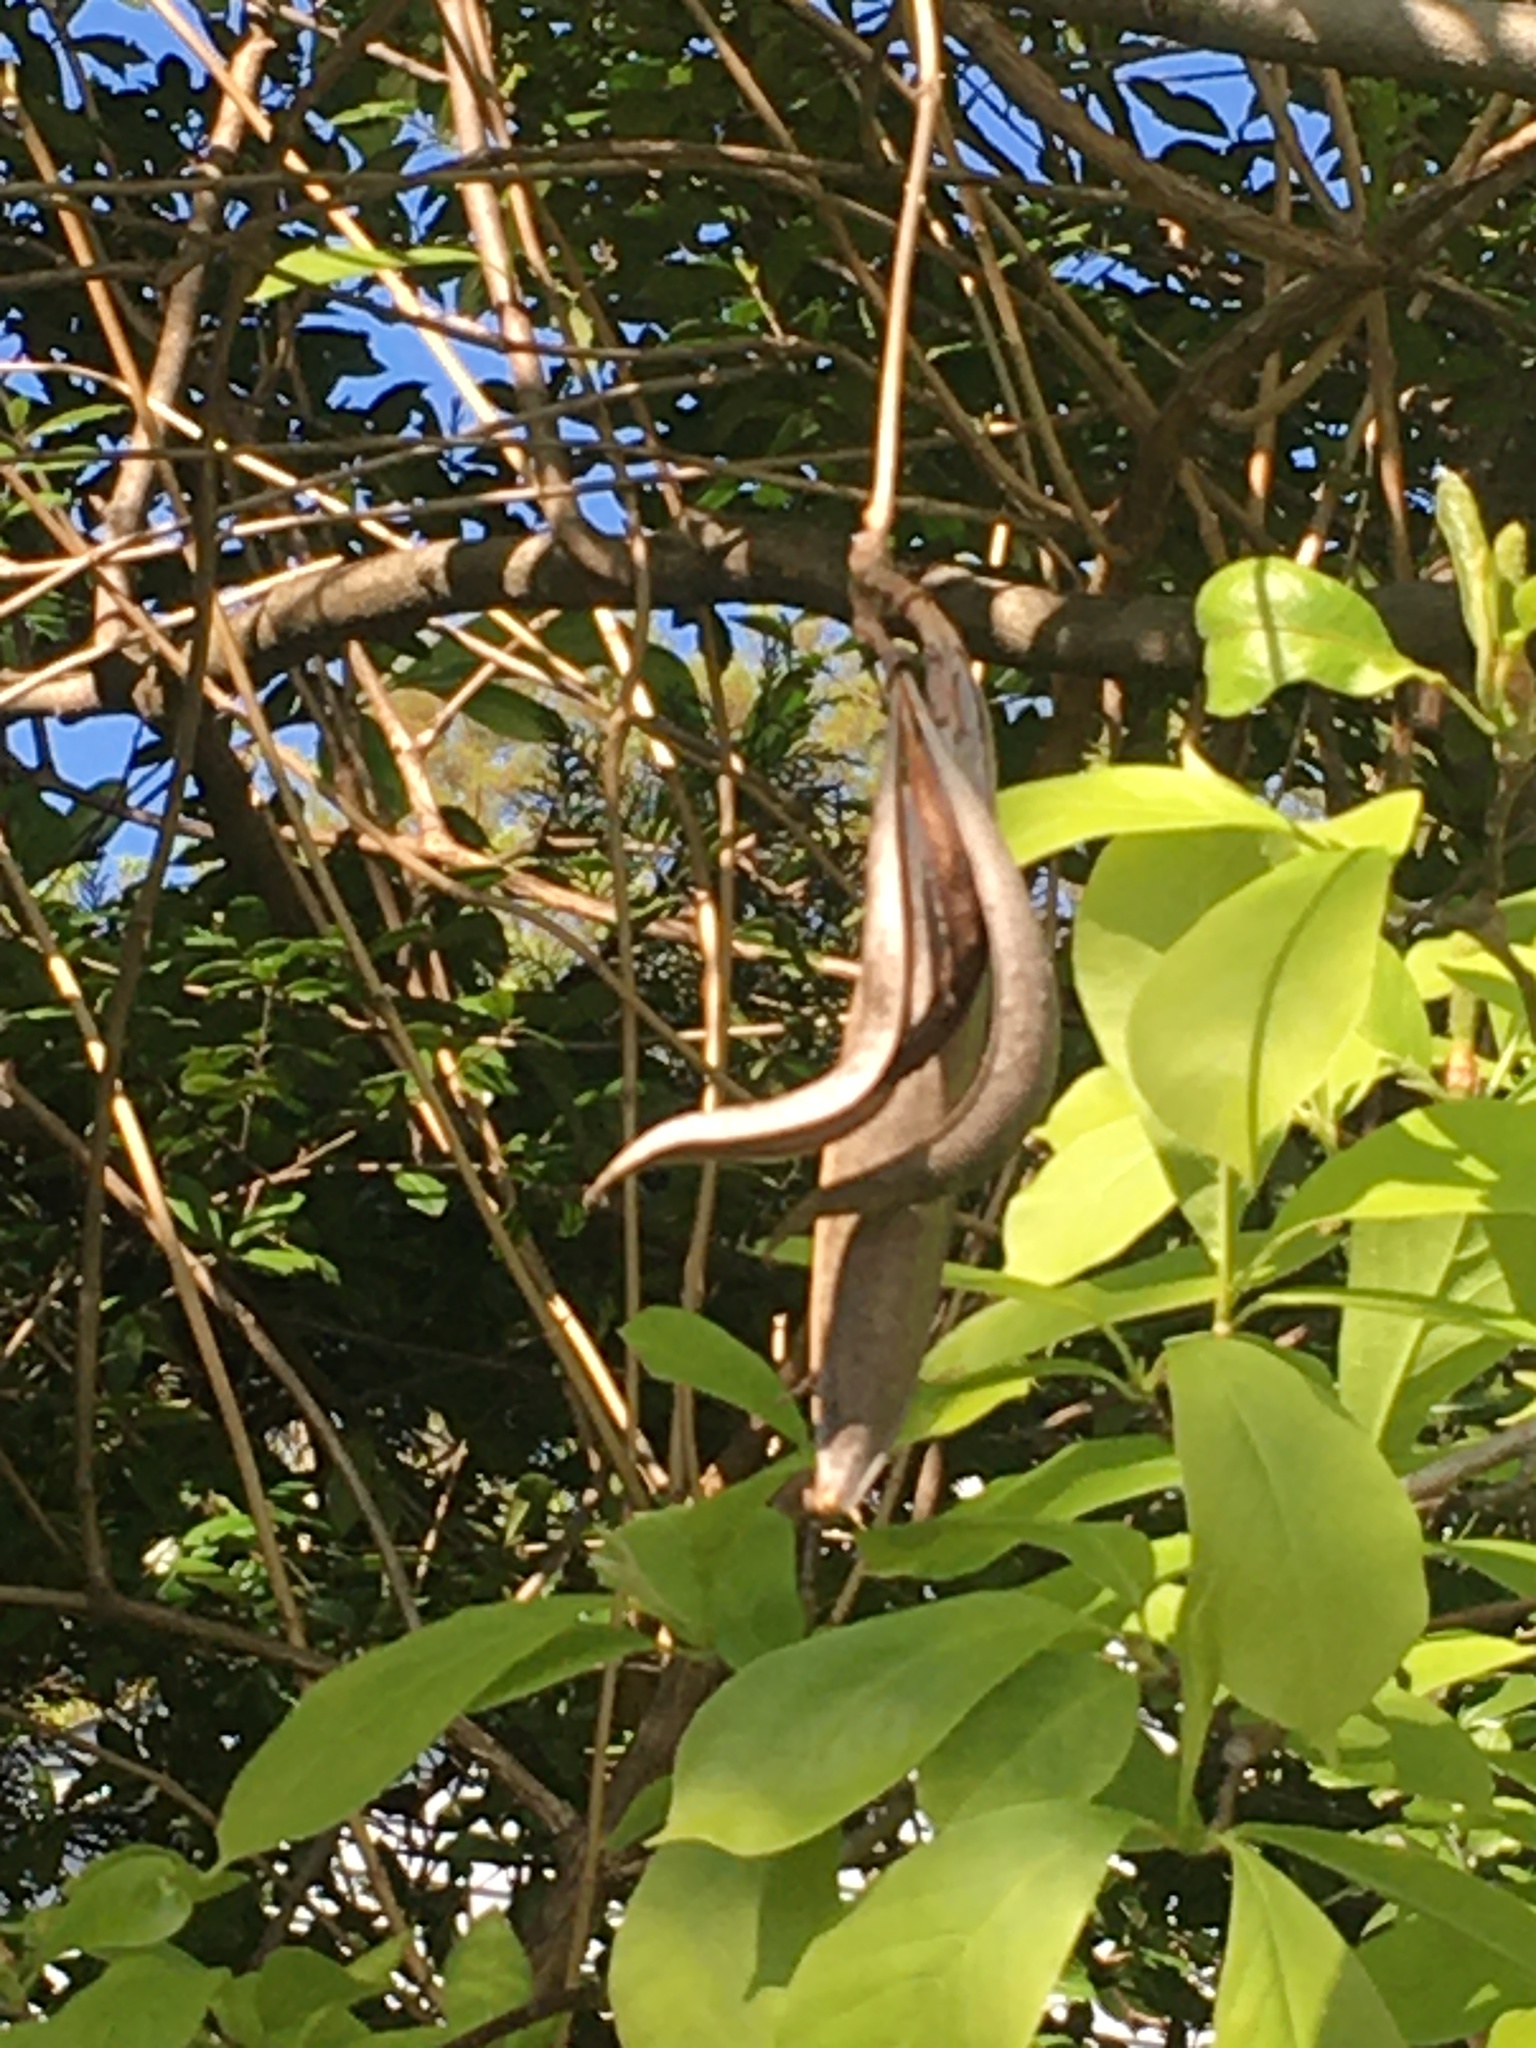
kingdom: Plantae
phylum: Tracheophyta
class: Magnoliopsida
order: Lamiales
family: Bignoniaceae
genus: Campsis
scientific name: Campsis radicans
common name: Trumpet-creeper
